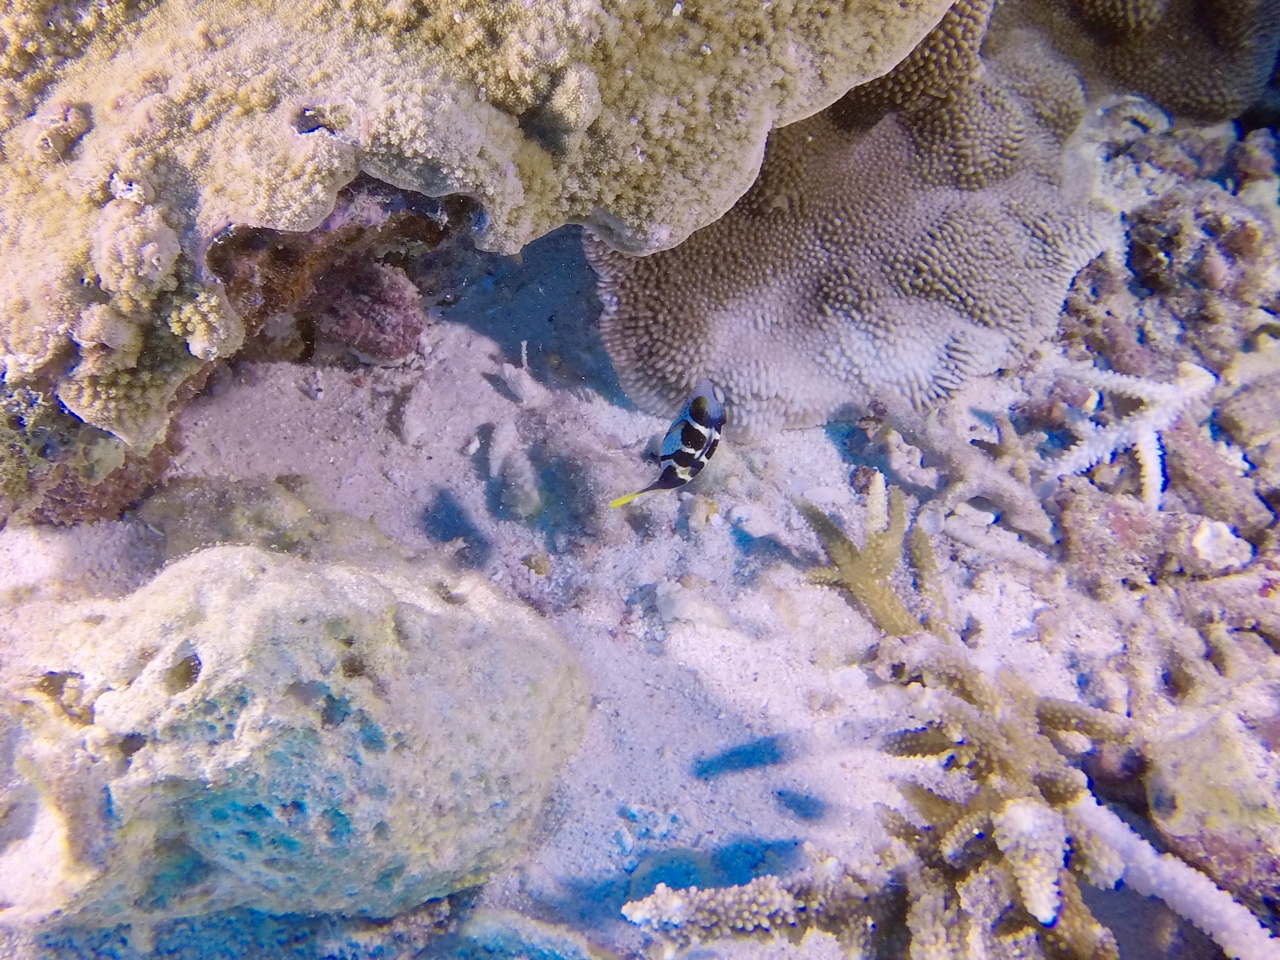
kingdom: Animalia
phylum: Chordata
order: Tetraodontiformes
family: Monacanthidae
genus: Paraluteres
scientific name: Paraluteres prionurus
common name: Black-saddled leatherjacket
